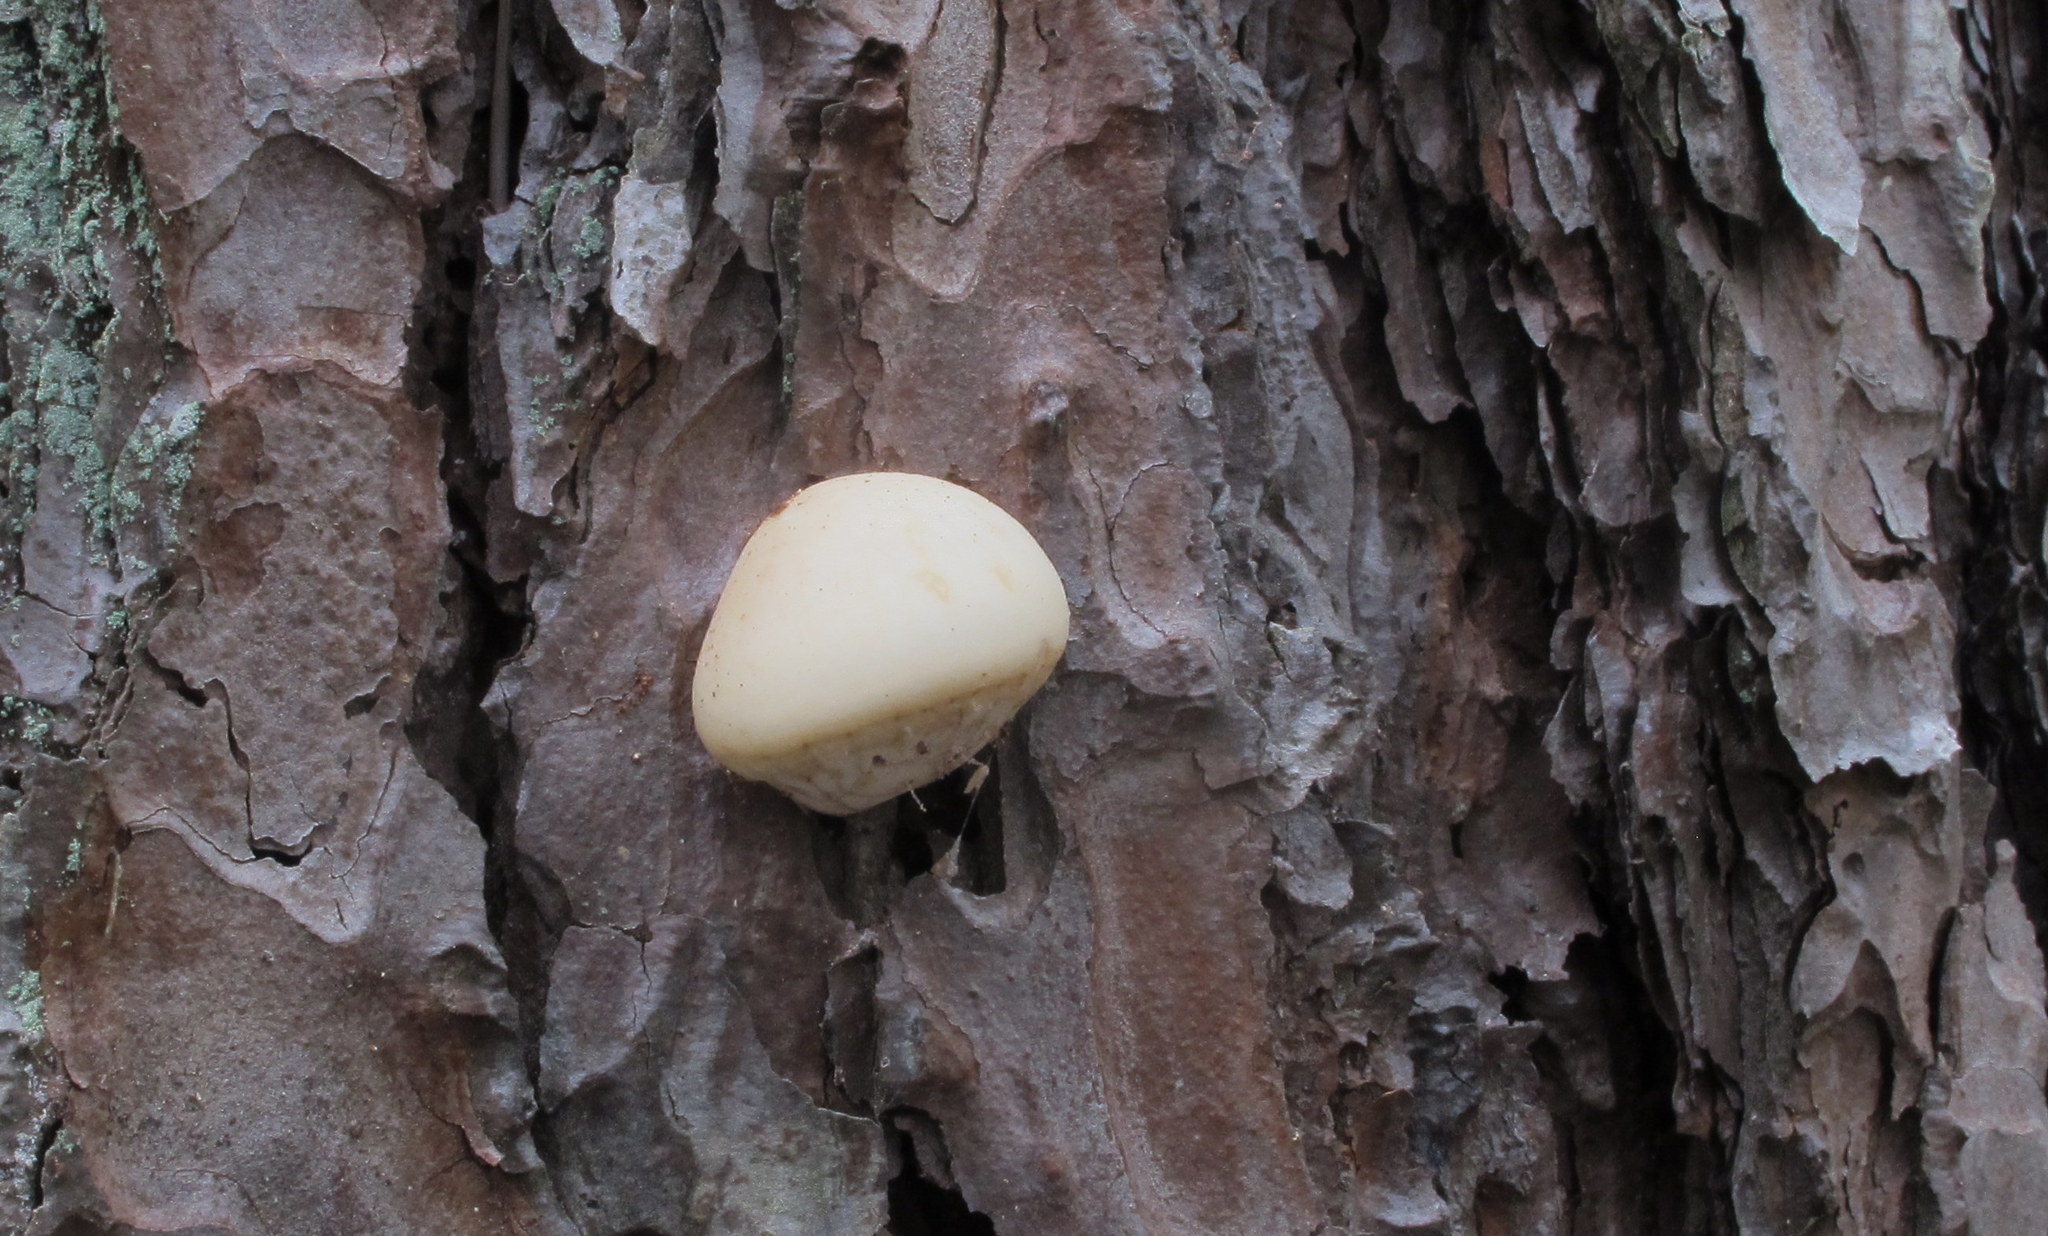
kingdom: Fungi
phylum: Basidiomycota
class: Agaricomycetes
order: Polyporales
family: Polyporaceae
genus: Cryptoporus
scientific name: Cryptoporus volvatus
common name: Veiled polypore
